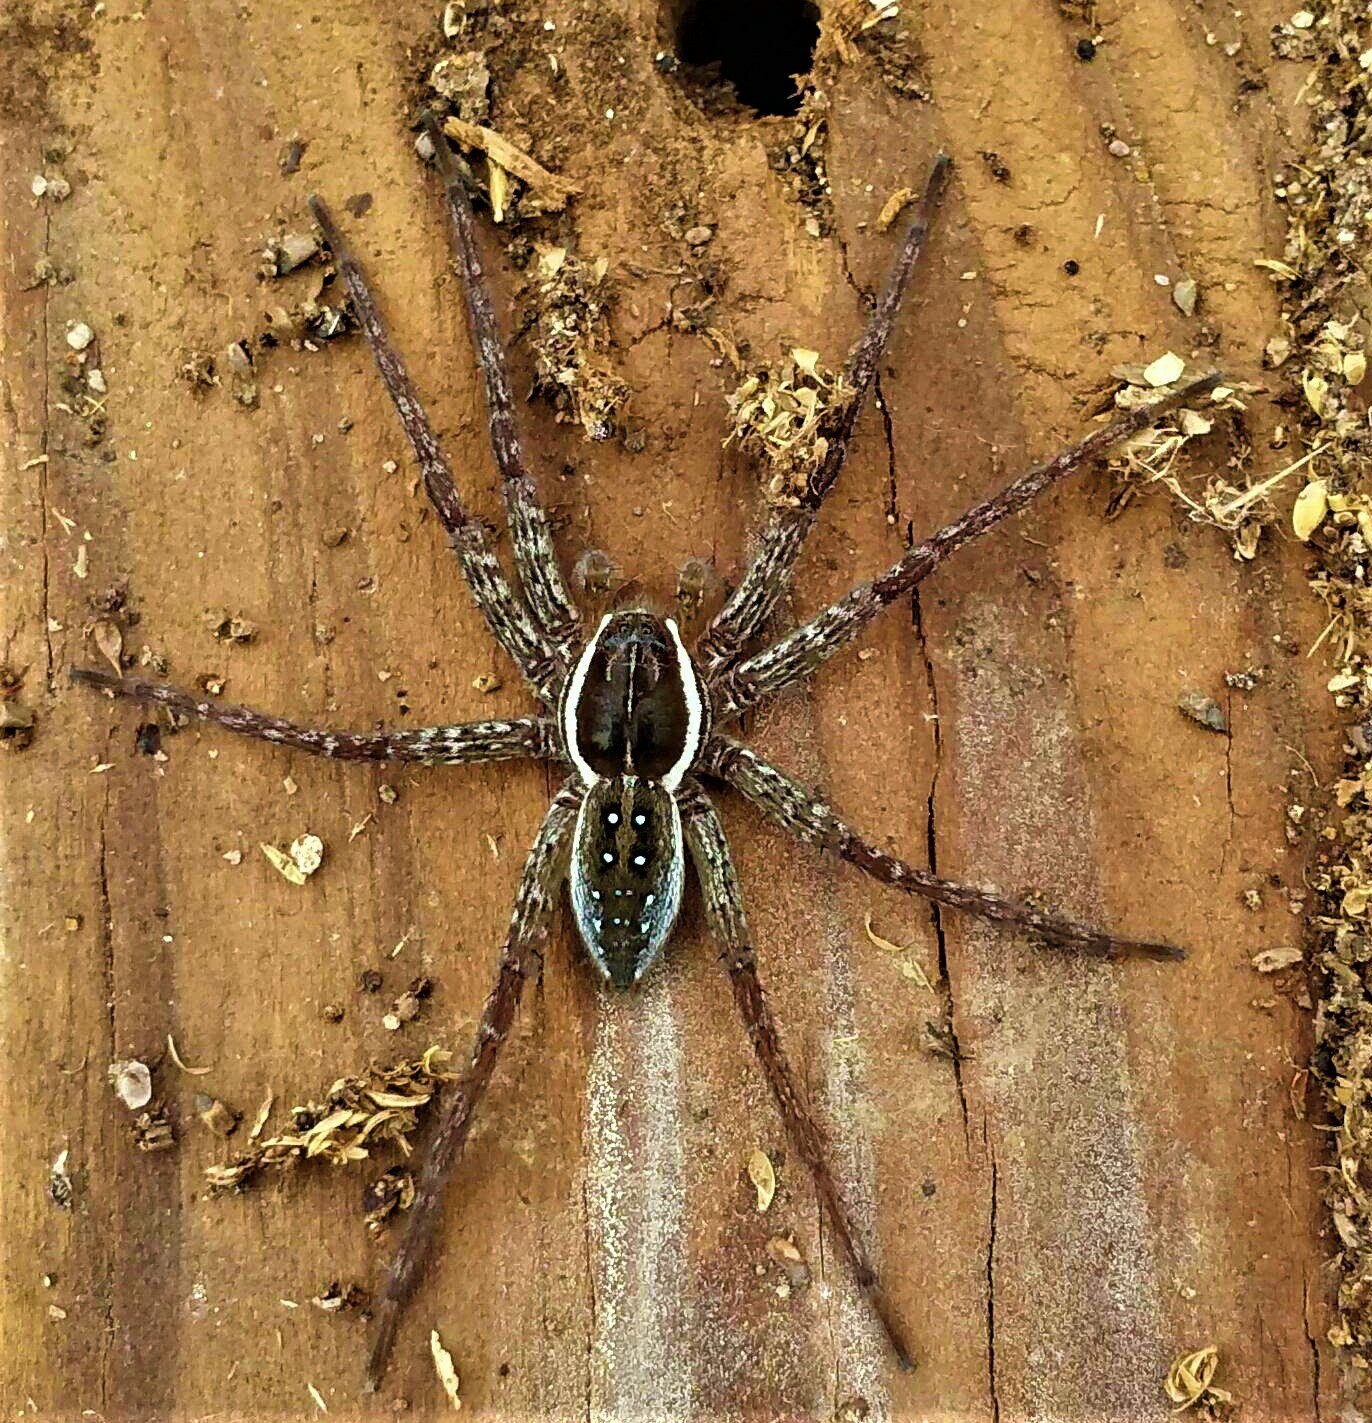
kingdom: Animalia
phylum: Arthropoda
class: Arachnida
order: Araneae
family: Pisauridae
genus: Dolomedes
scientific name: Dolomedes triton
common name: Six-spotted fishing spider
